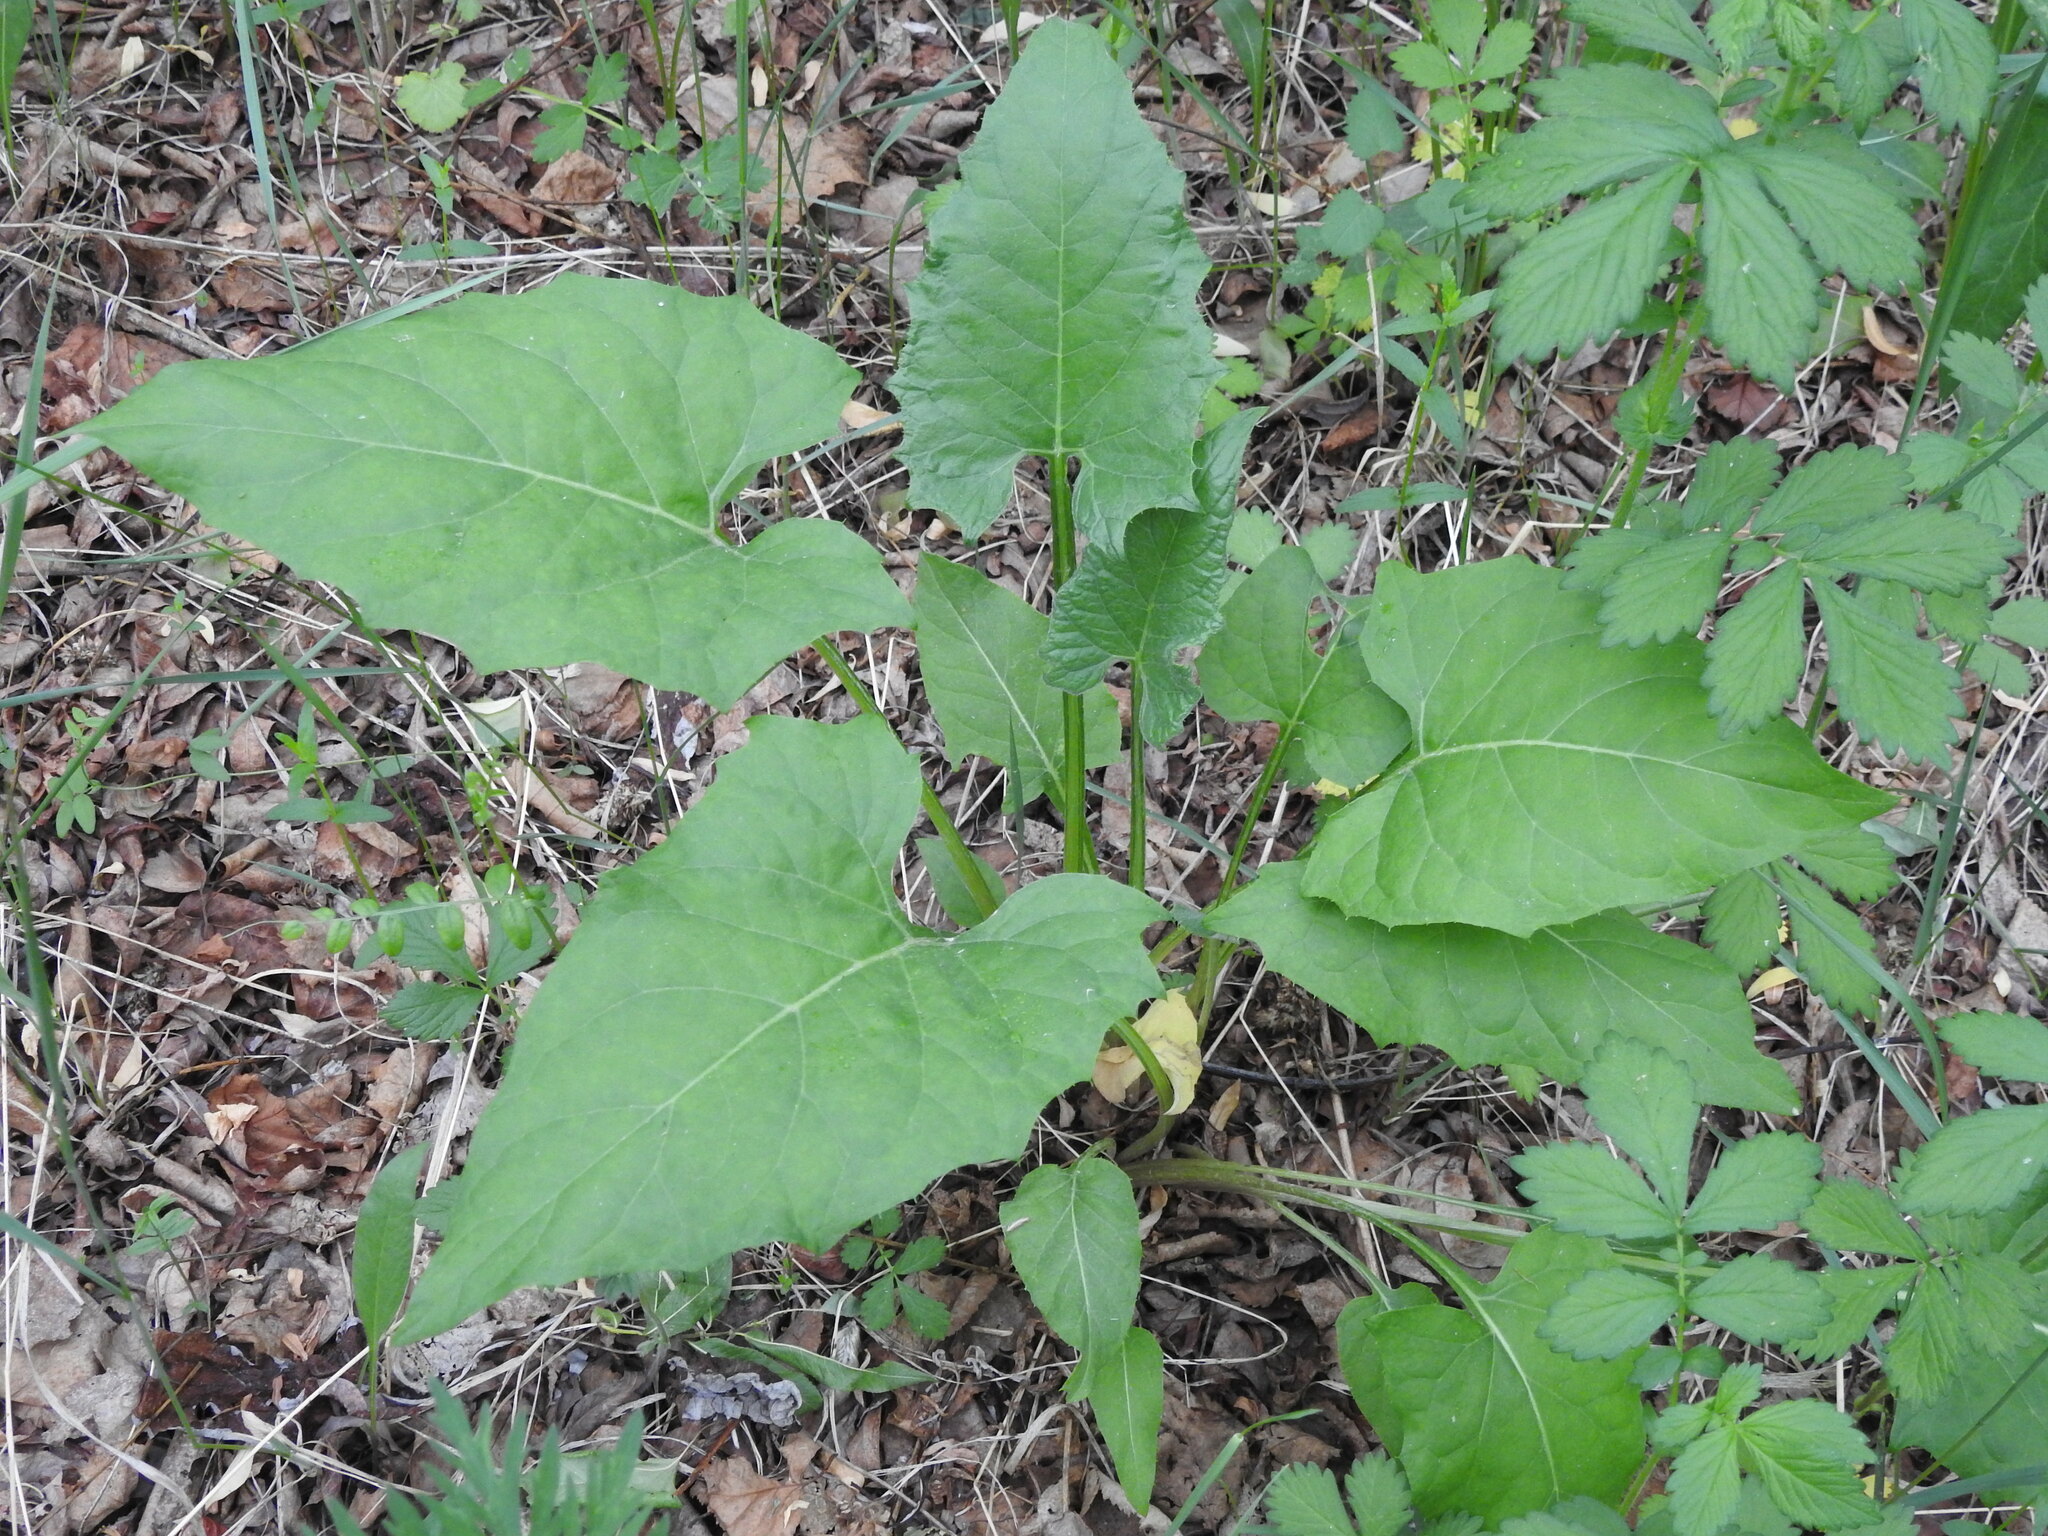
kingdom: Plantae
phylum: Tracheophyta
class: Magnoliopsida
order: Asterales
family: Asteraceae
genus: Synurus
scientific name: Synurus deltoides
